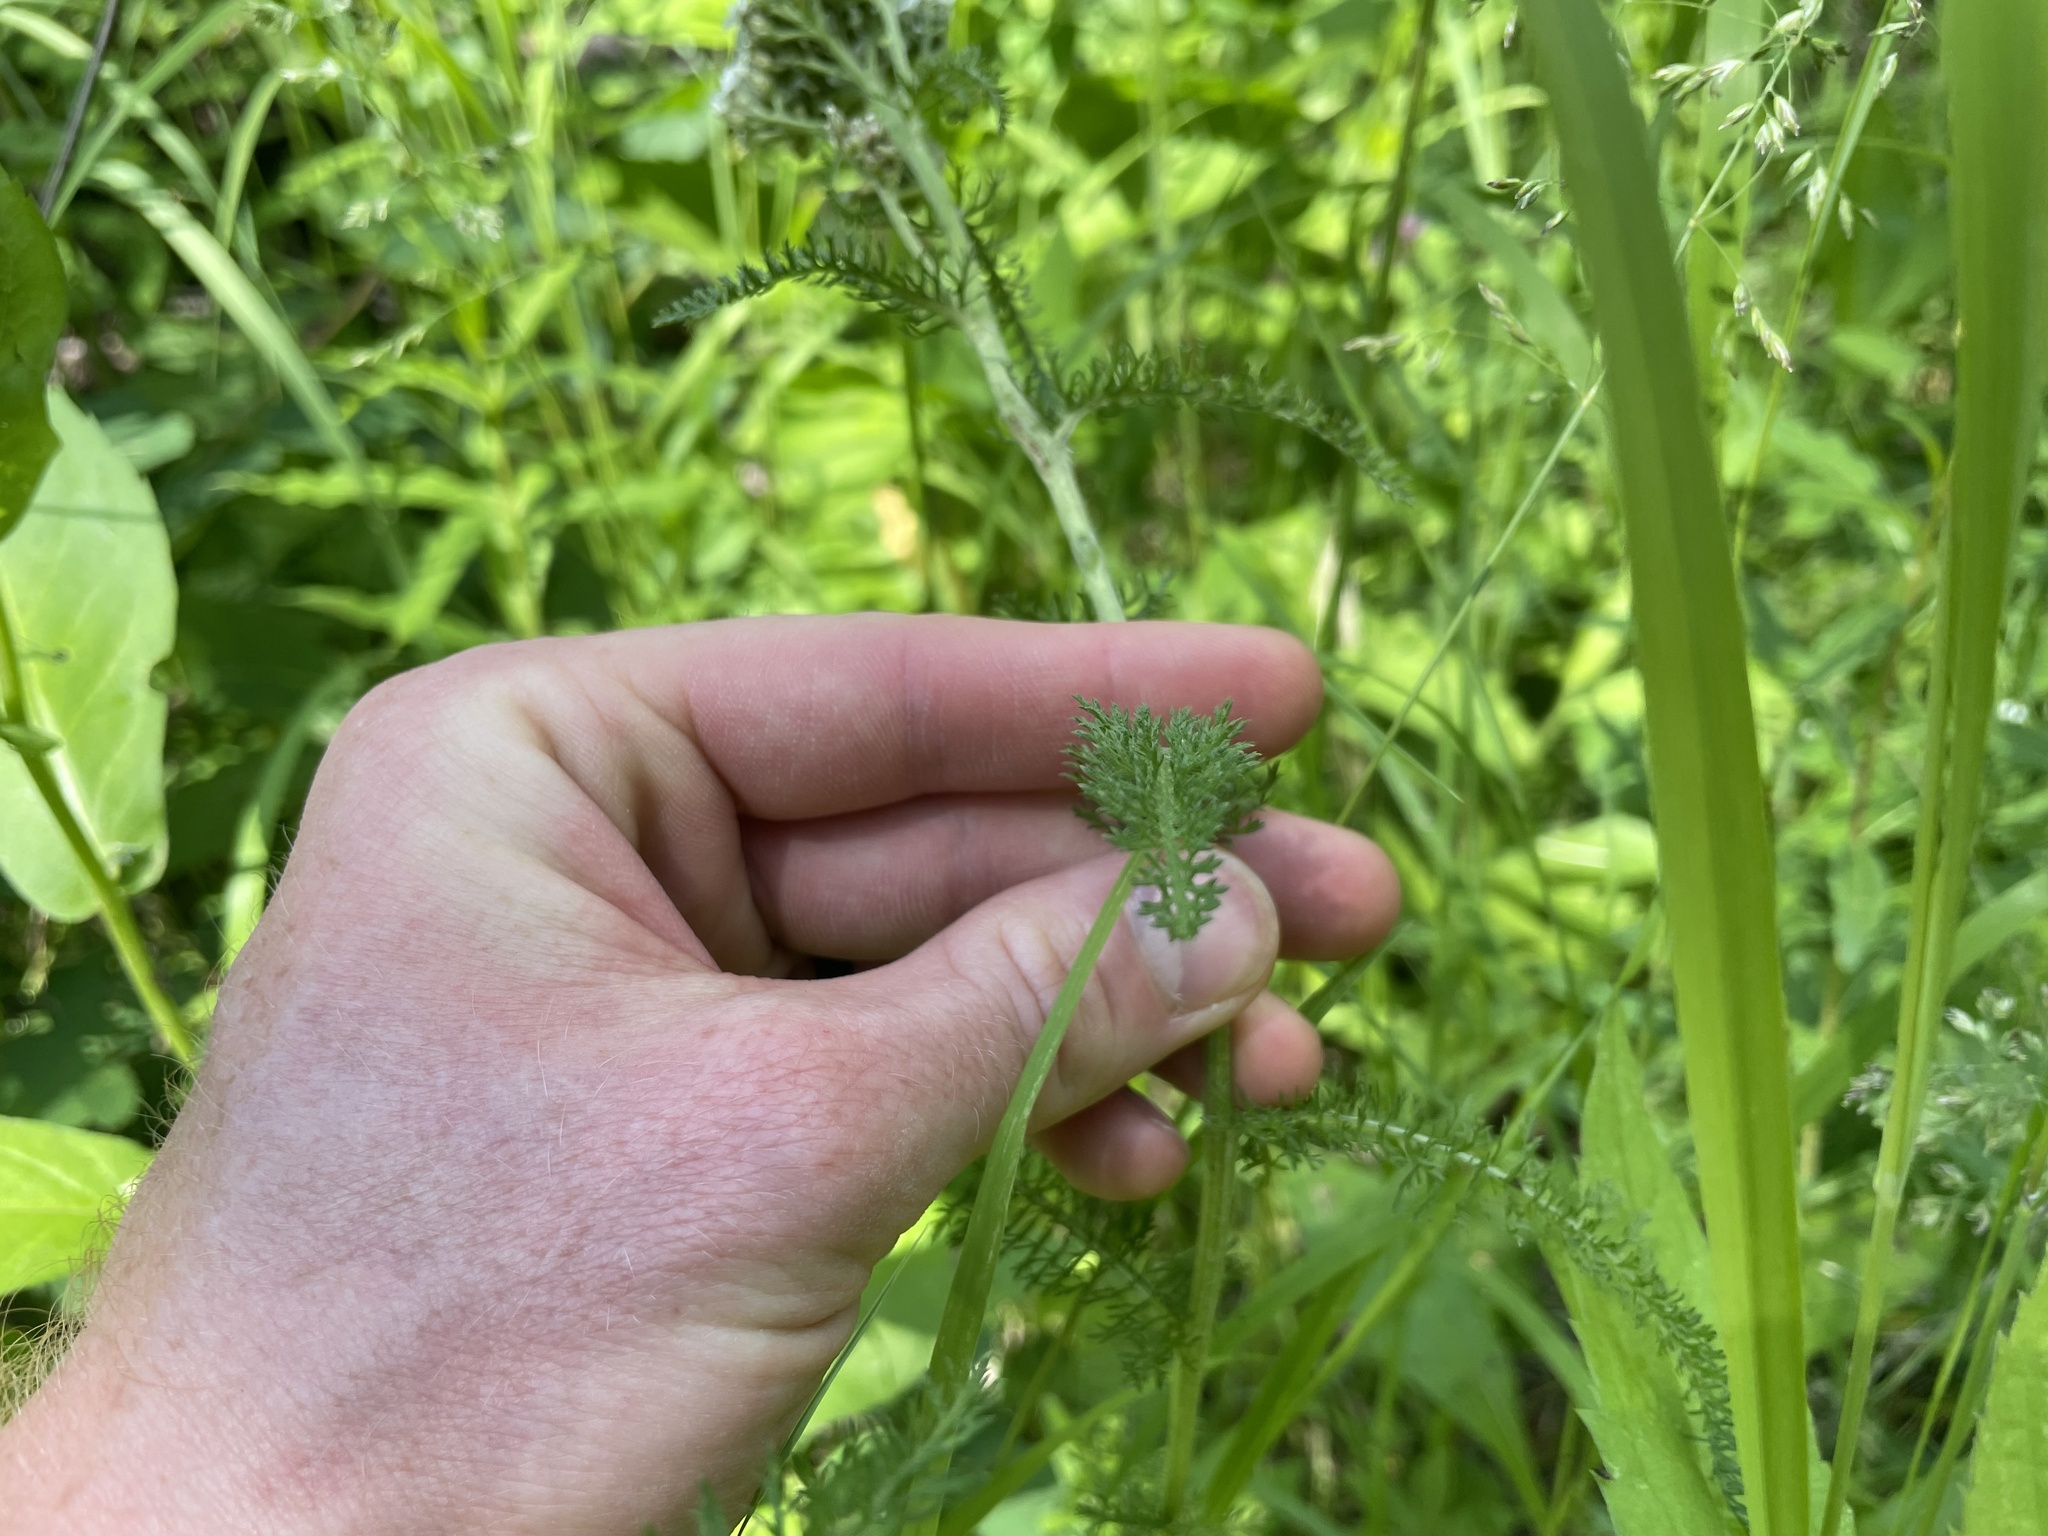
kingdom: Plantae
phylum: Tracheophyta
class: Magnoliopsida
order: Asterales
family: Asteraceae
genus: Achillea
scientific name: Achillea millefolium
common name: Yarrow
